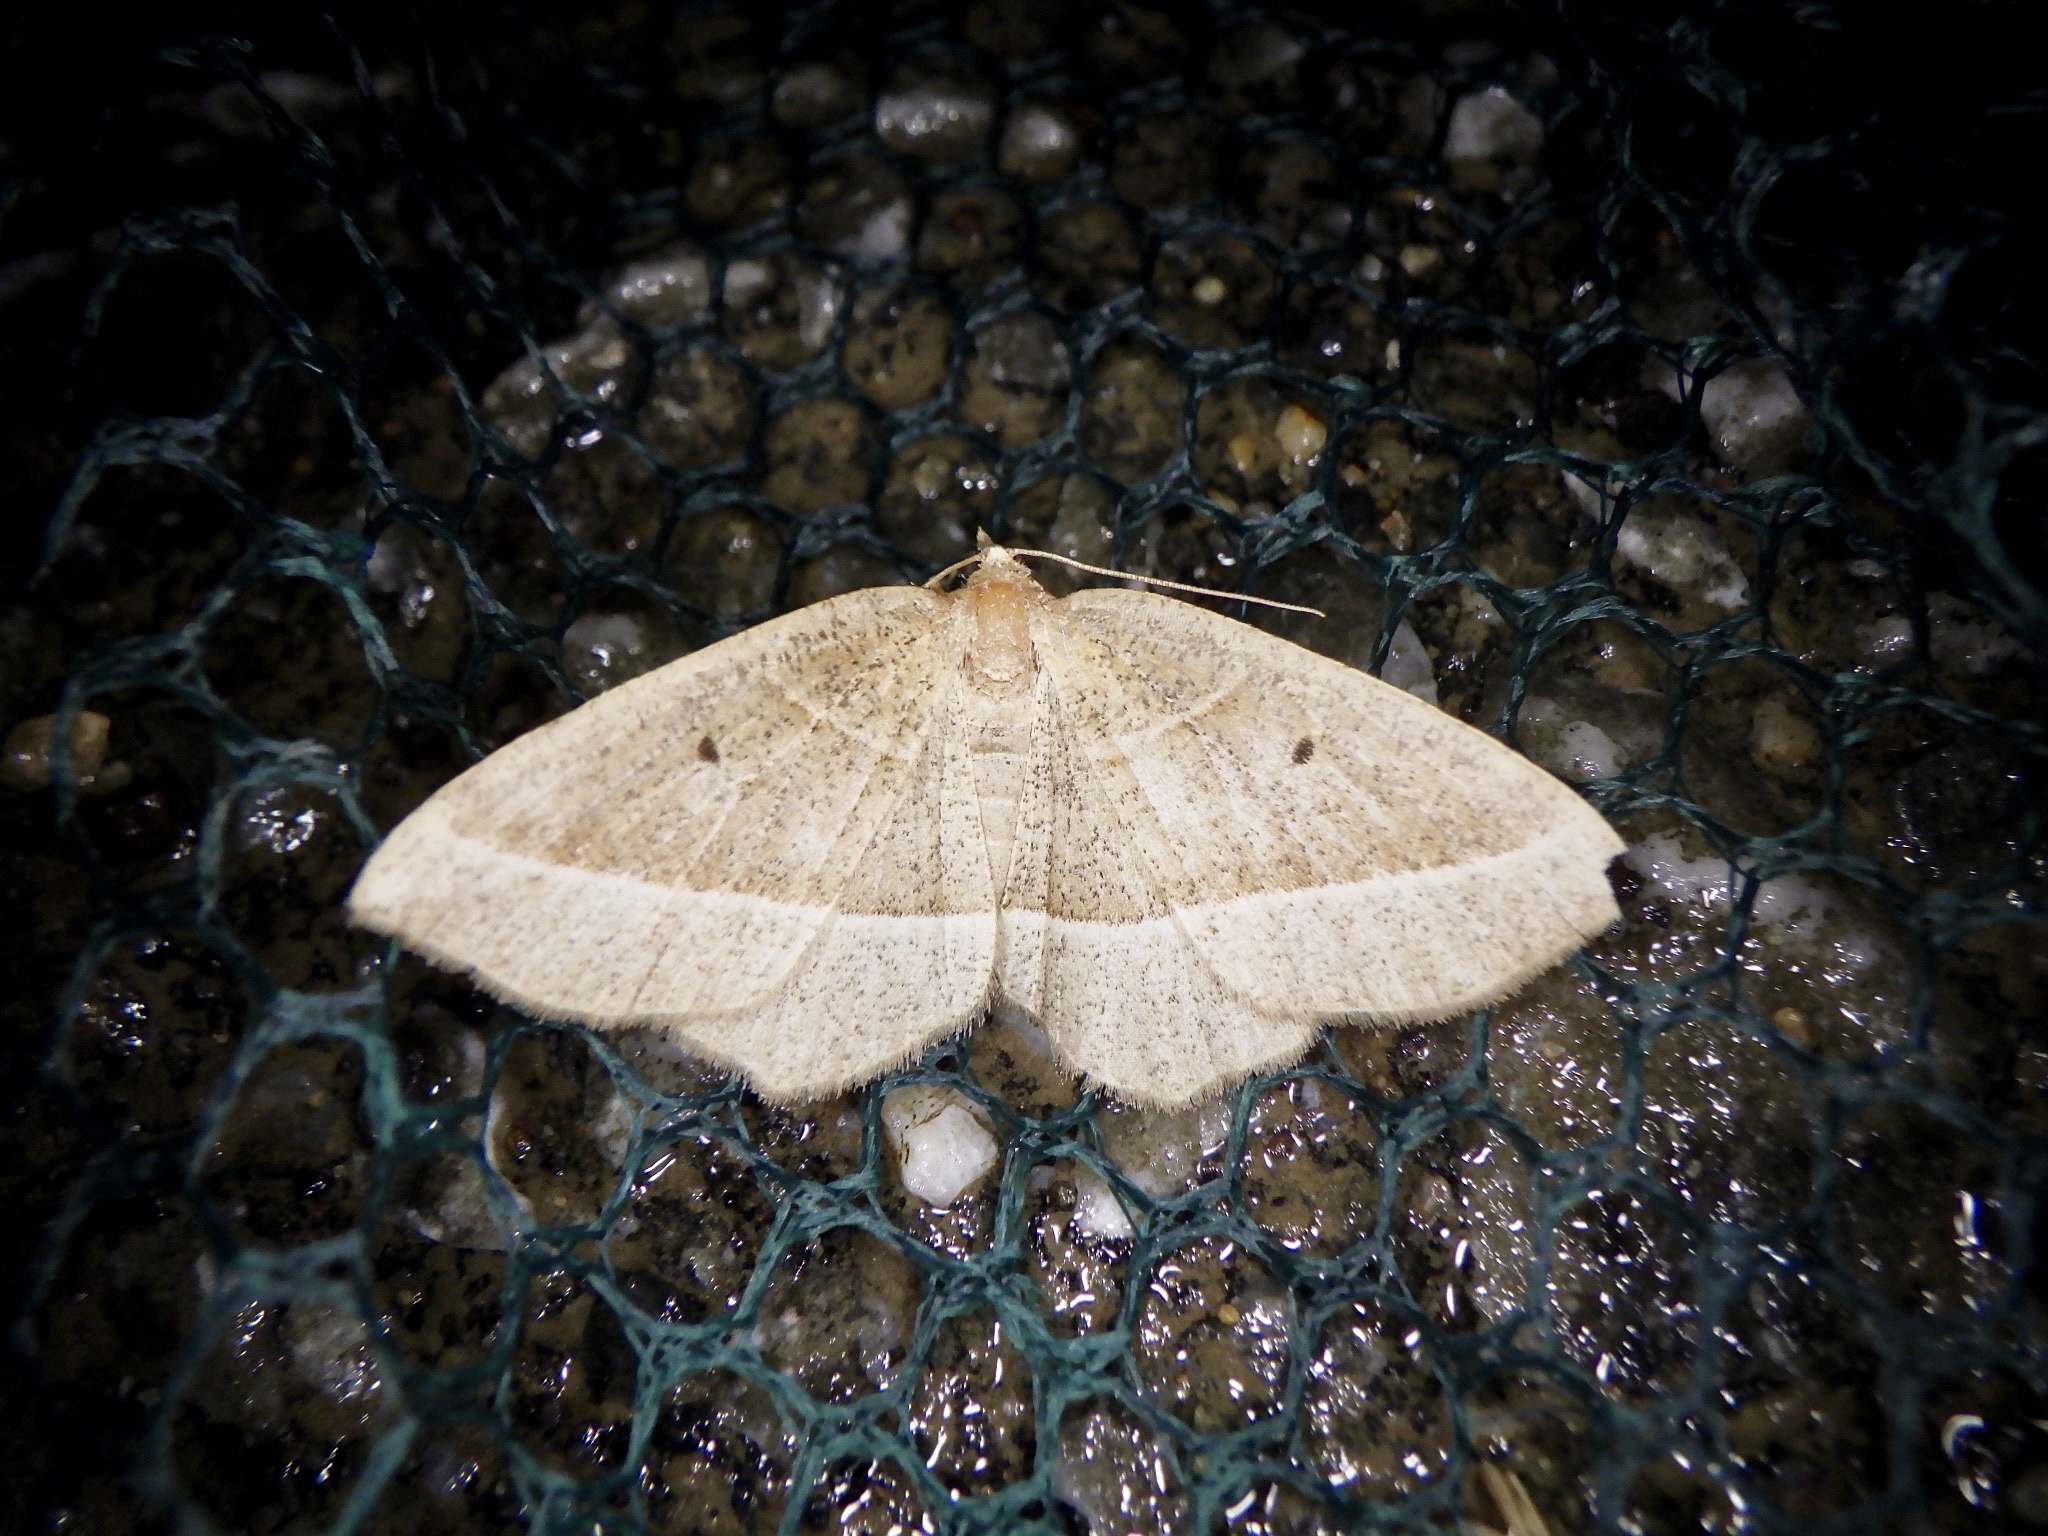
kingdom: Animalia
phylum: Arthropoda
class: Insecta
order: Lepidoptera
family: Geometridae
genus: Rhynchobapta
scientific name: Rhynchobapta cervinaria
